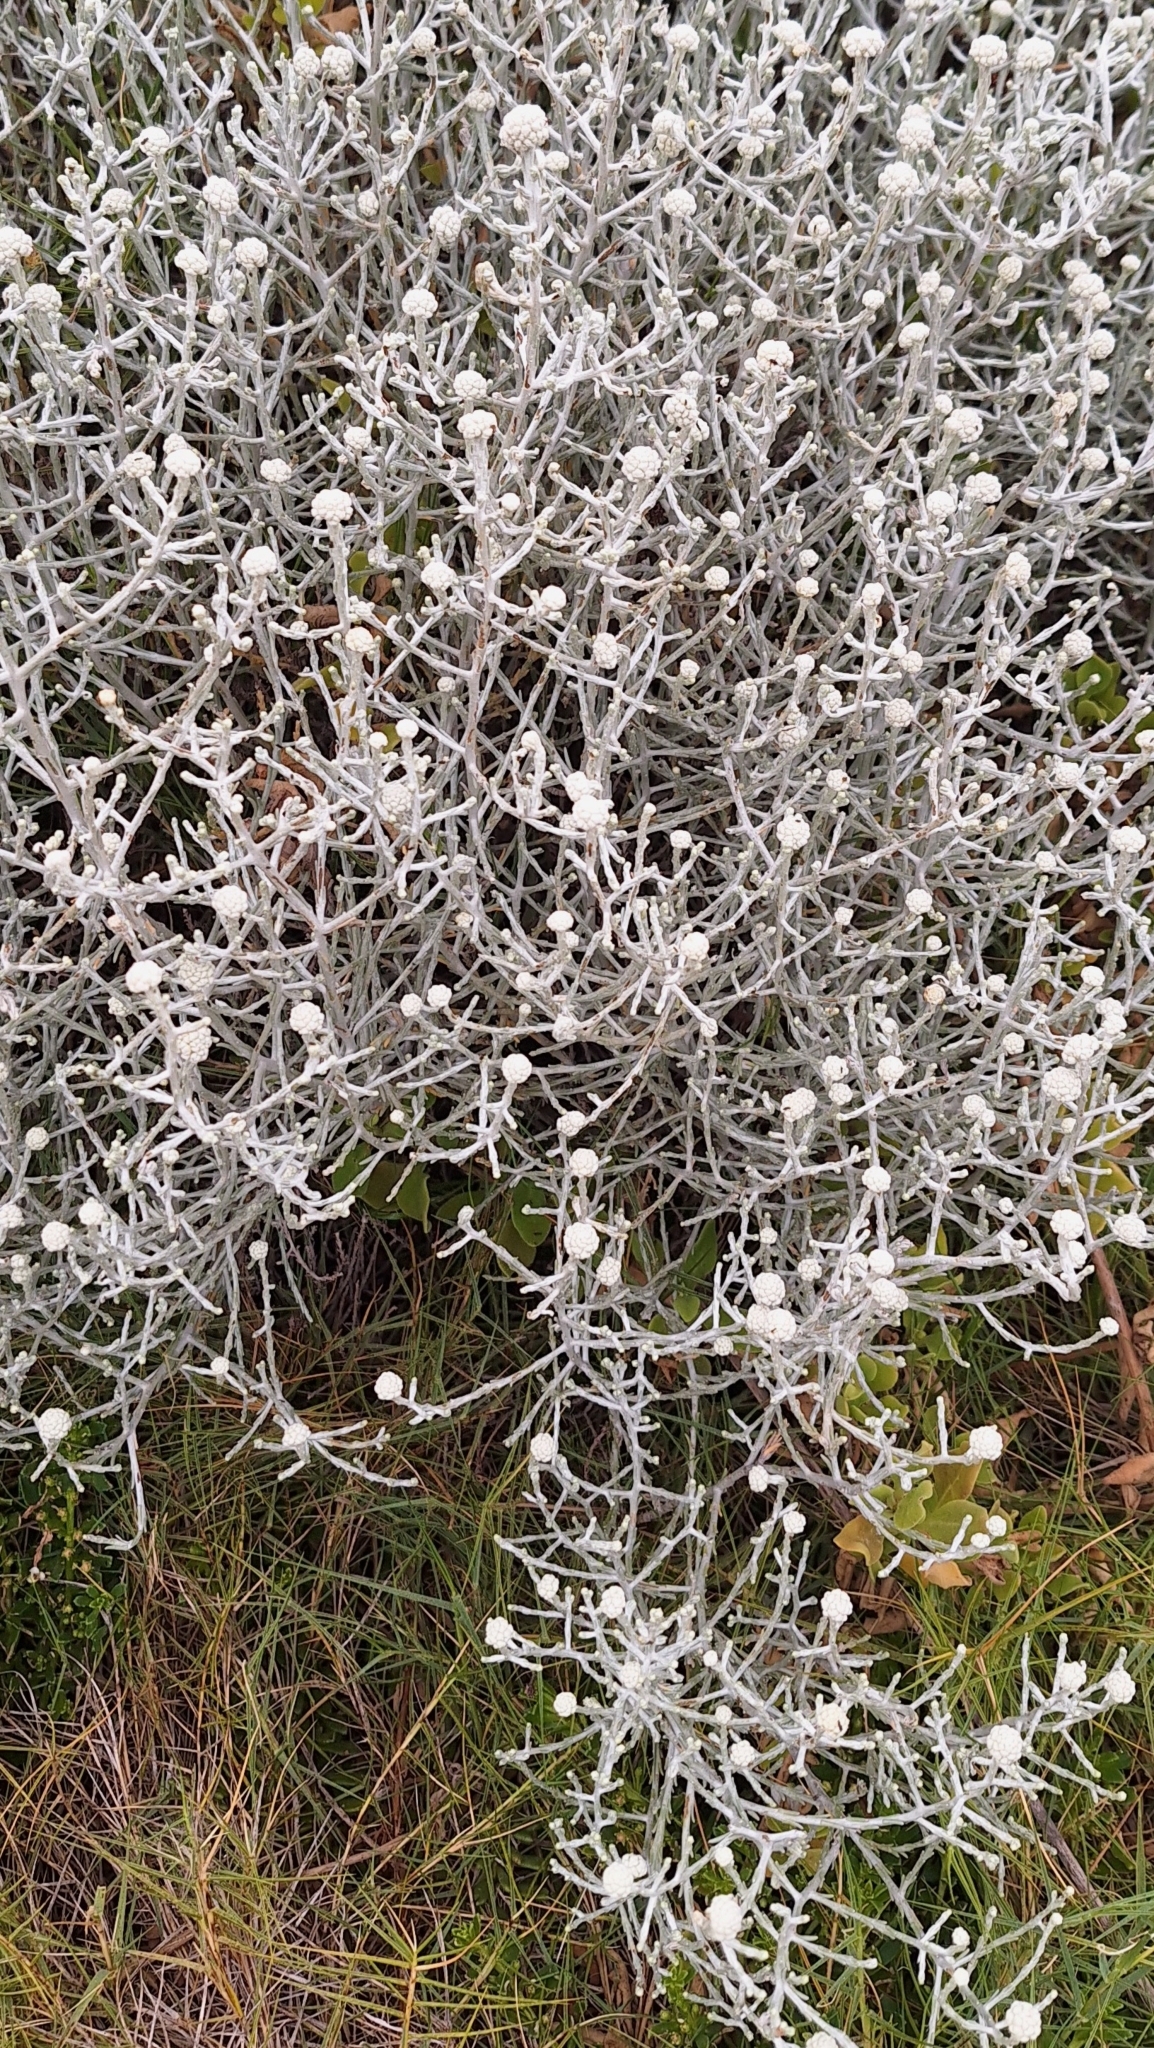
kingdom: Plantae
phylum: Tracheophyta
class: Magnoliopsida
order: Asterales
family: Asteraceae
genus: Calocephalus
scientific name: Calocephalus brownii
